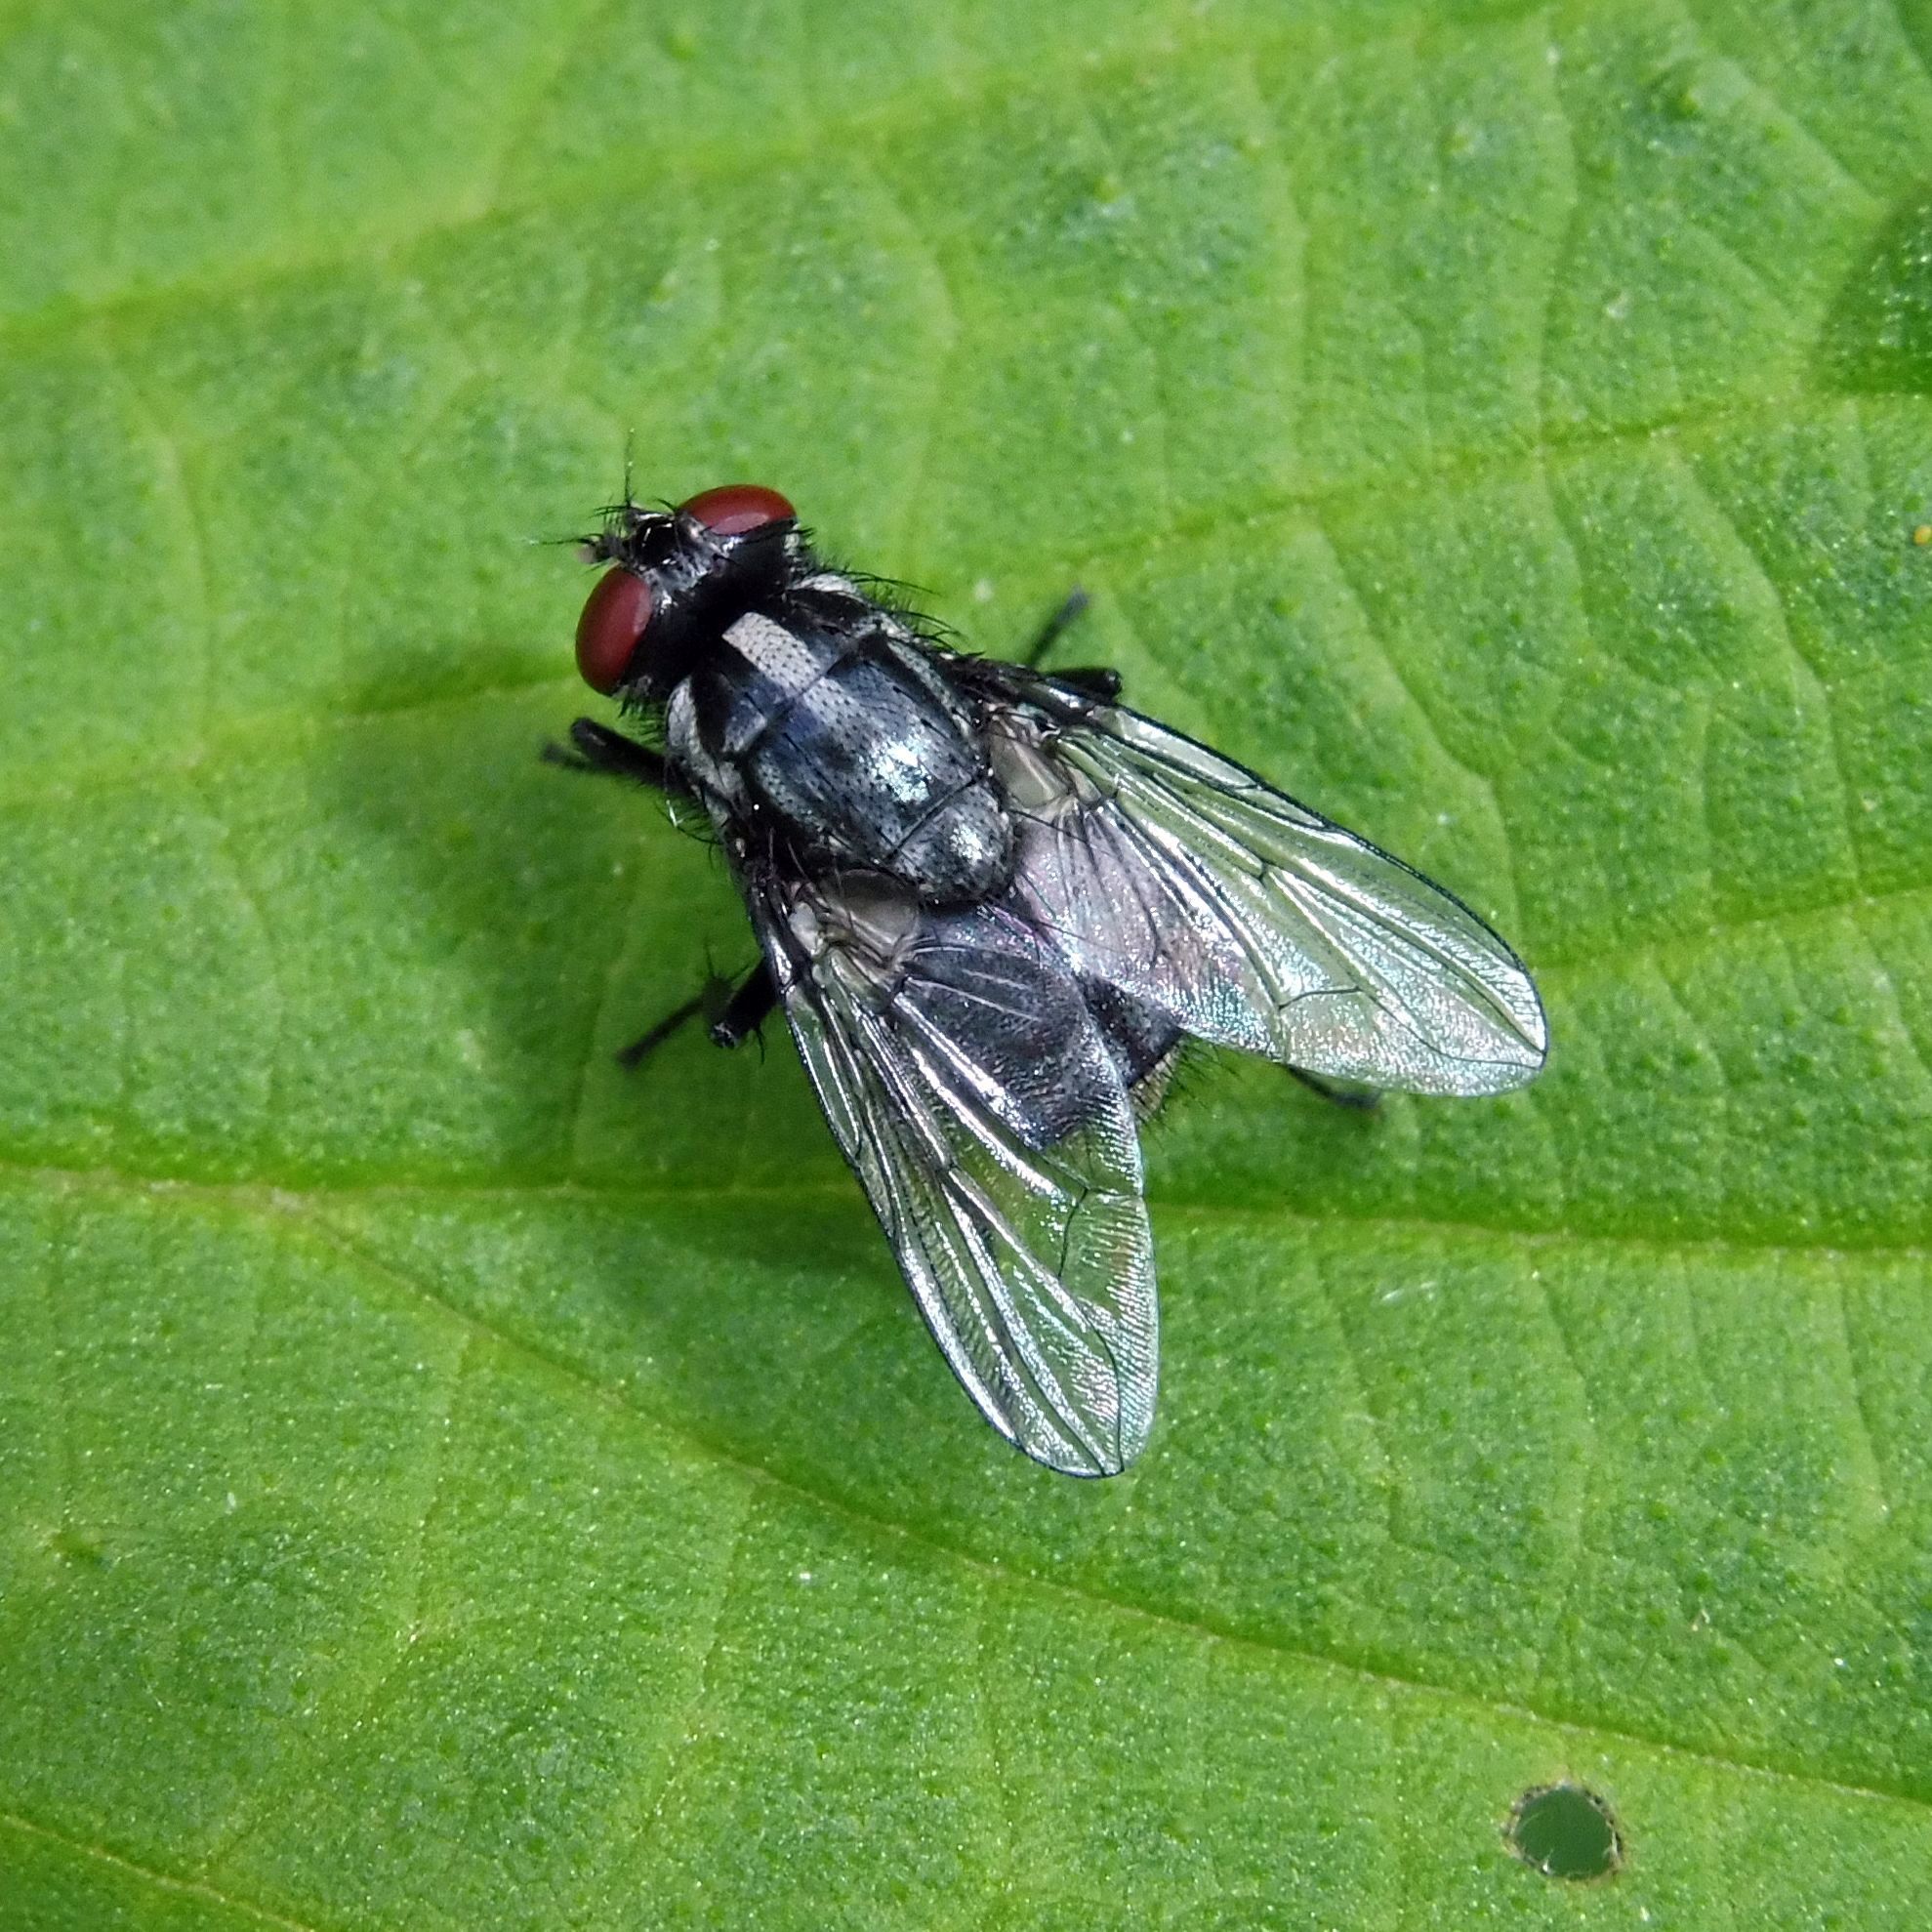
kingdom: Animalia
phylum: Arthropoda
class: Insecta
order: Diptera
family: Muscidae
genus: Morellia
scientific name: Morellia
